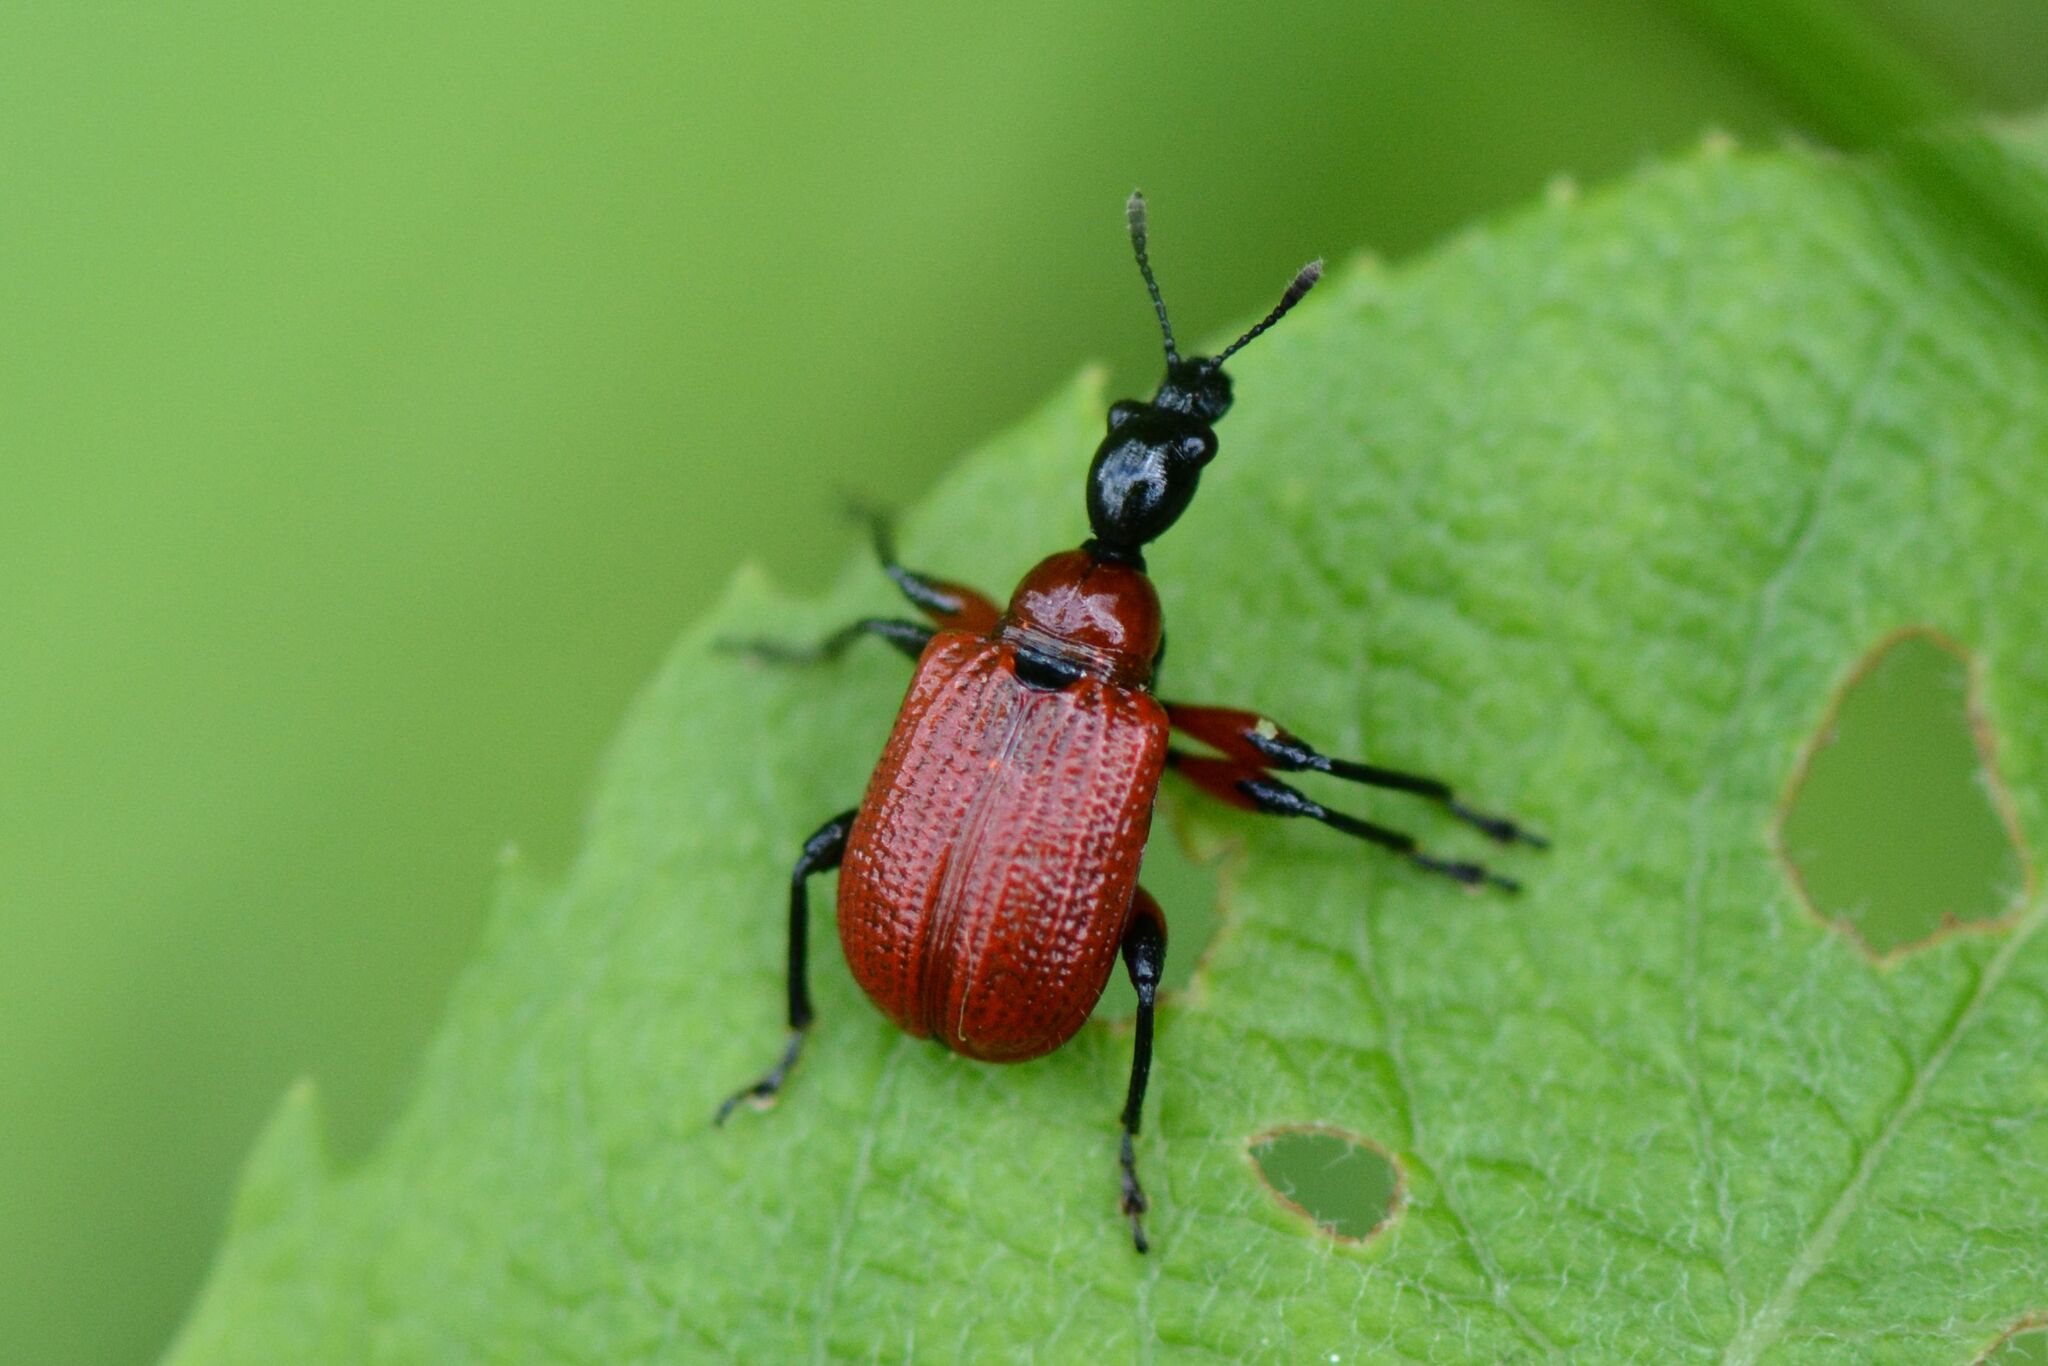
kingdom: Animalia
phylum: Arthropoda
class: Insecta
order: Coleoptera
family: Attelabidae
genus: Apoderus
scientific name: Apoderus coryli
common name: Hazel leaf roller
